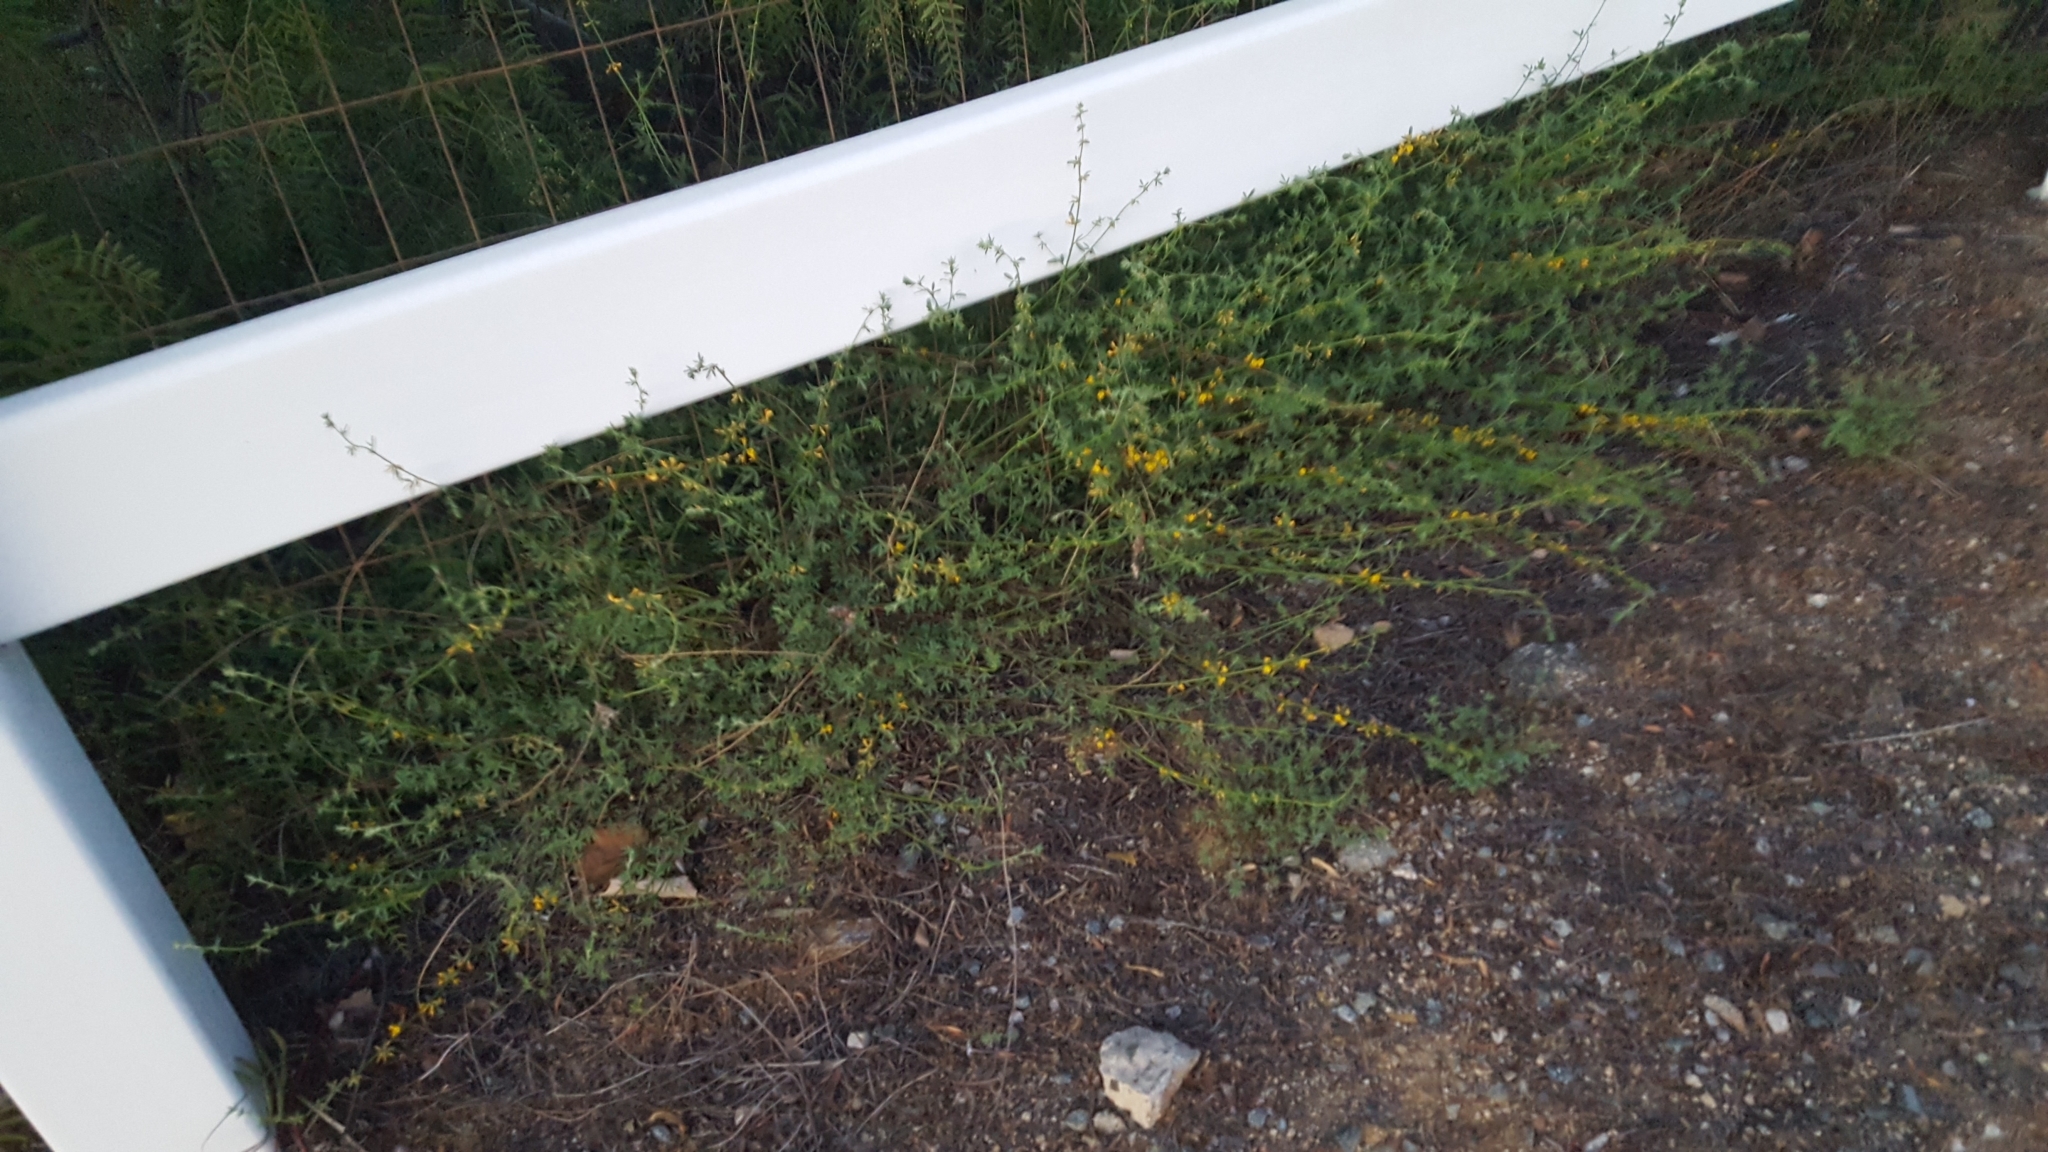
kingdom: Plantae
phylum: Tracheophyta
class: Magnoliopsida
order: Fabales
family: Fabaceae
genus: Acmispon
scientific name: Acmispon glaber
